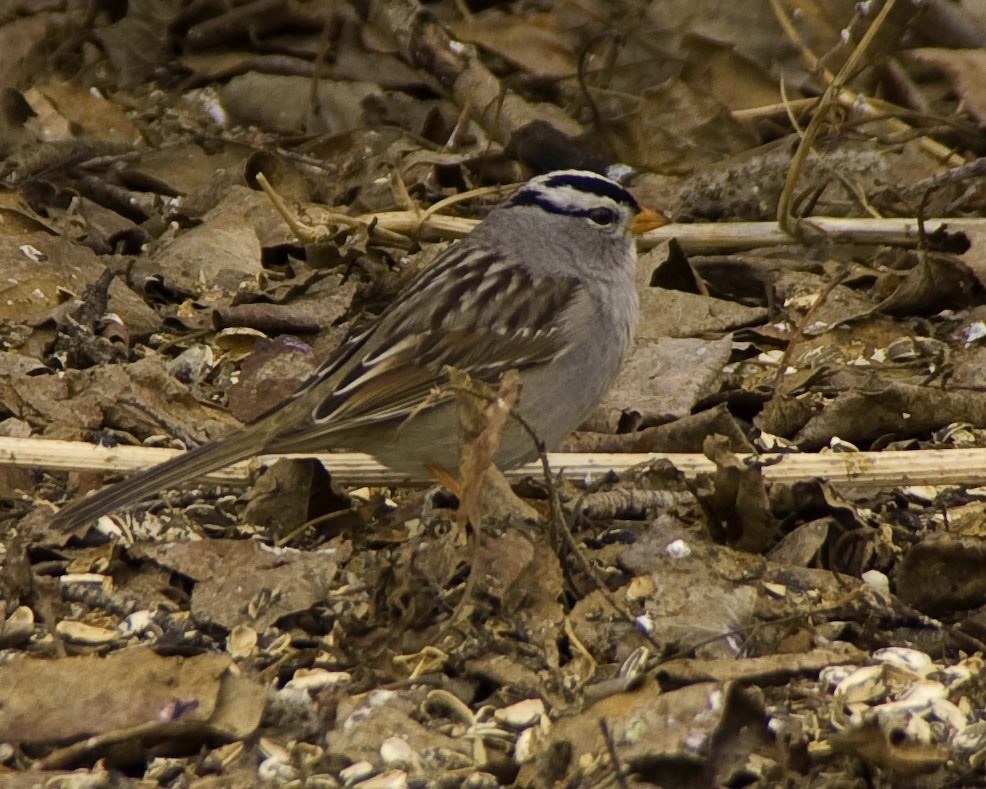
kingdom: Animalia
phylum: Chordata
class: Aves
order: Passeriformes
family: Passerellidae
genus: Zonotrichia
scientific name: Zonotrichia leucophrys
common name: White-crowned sparrow
